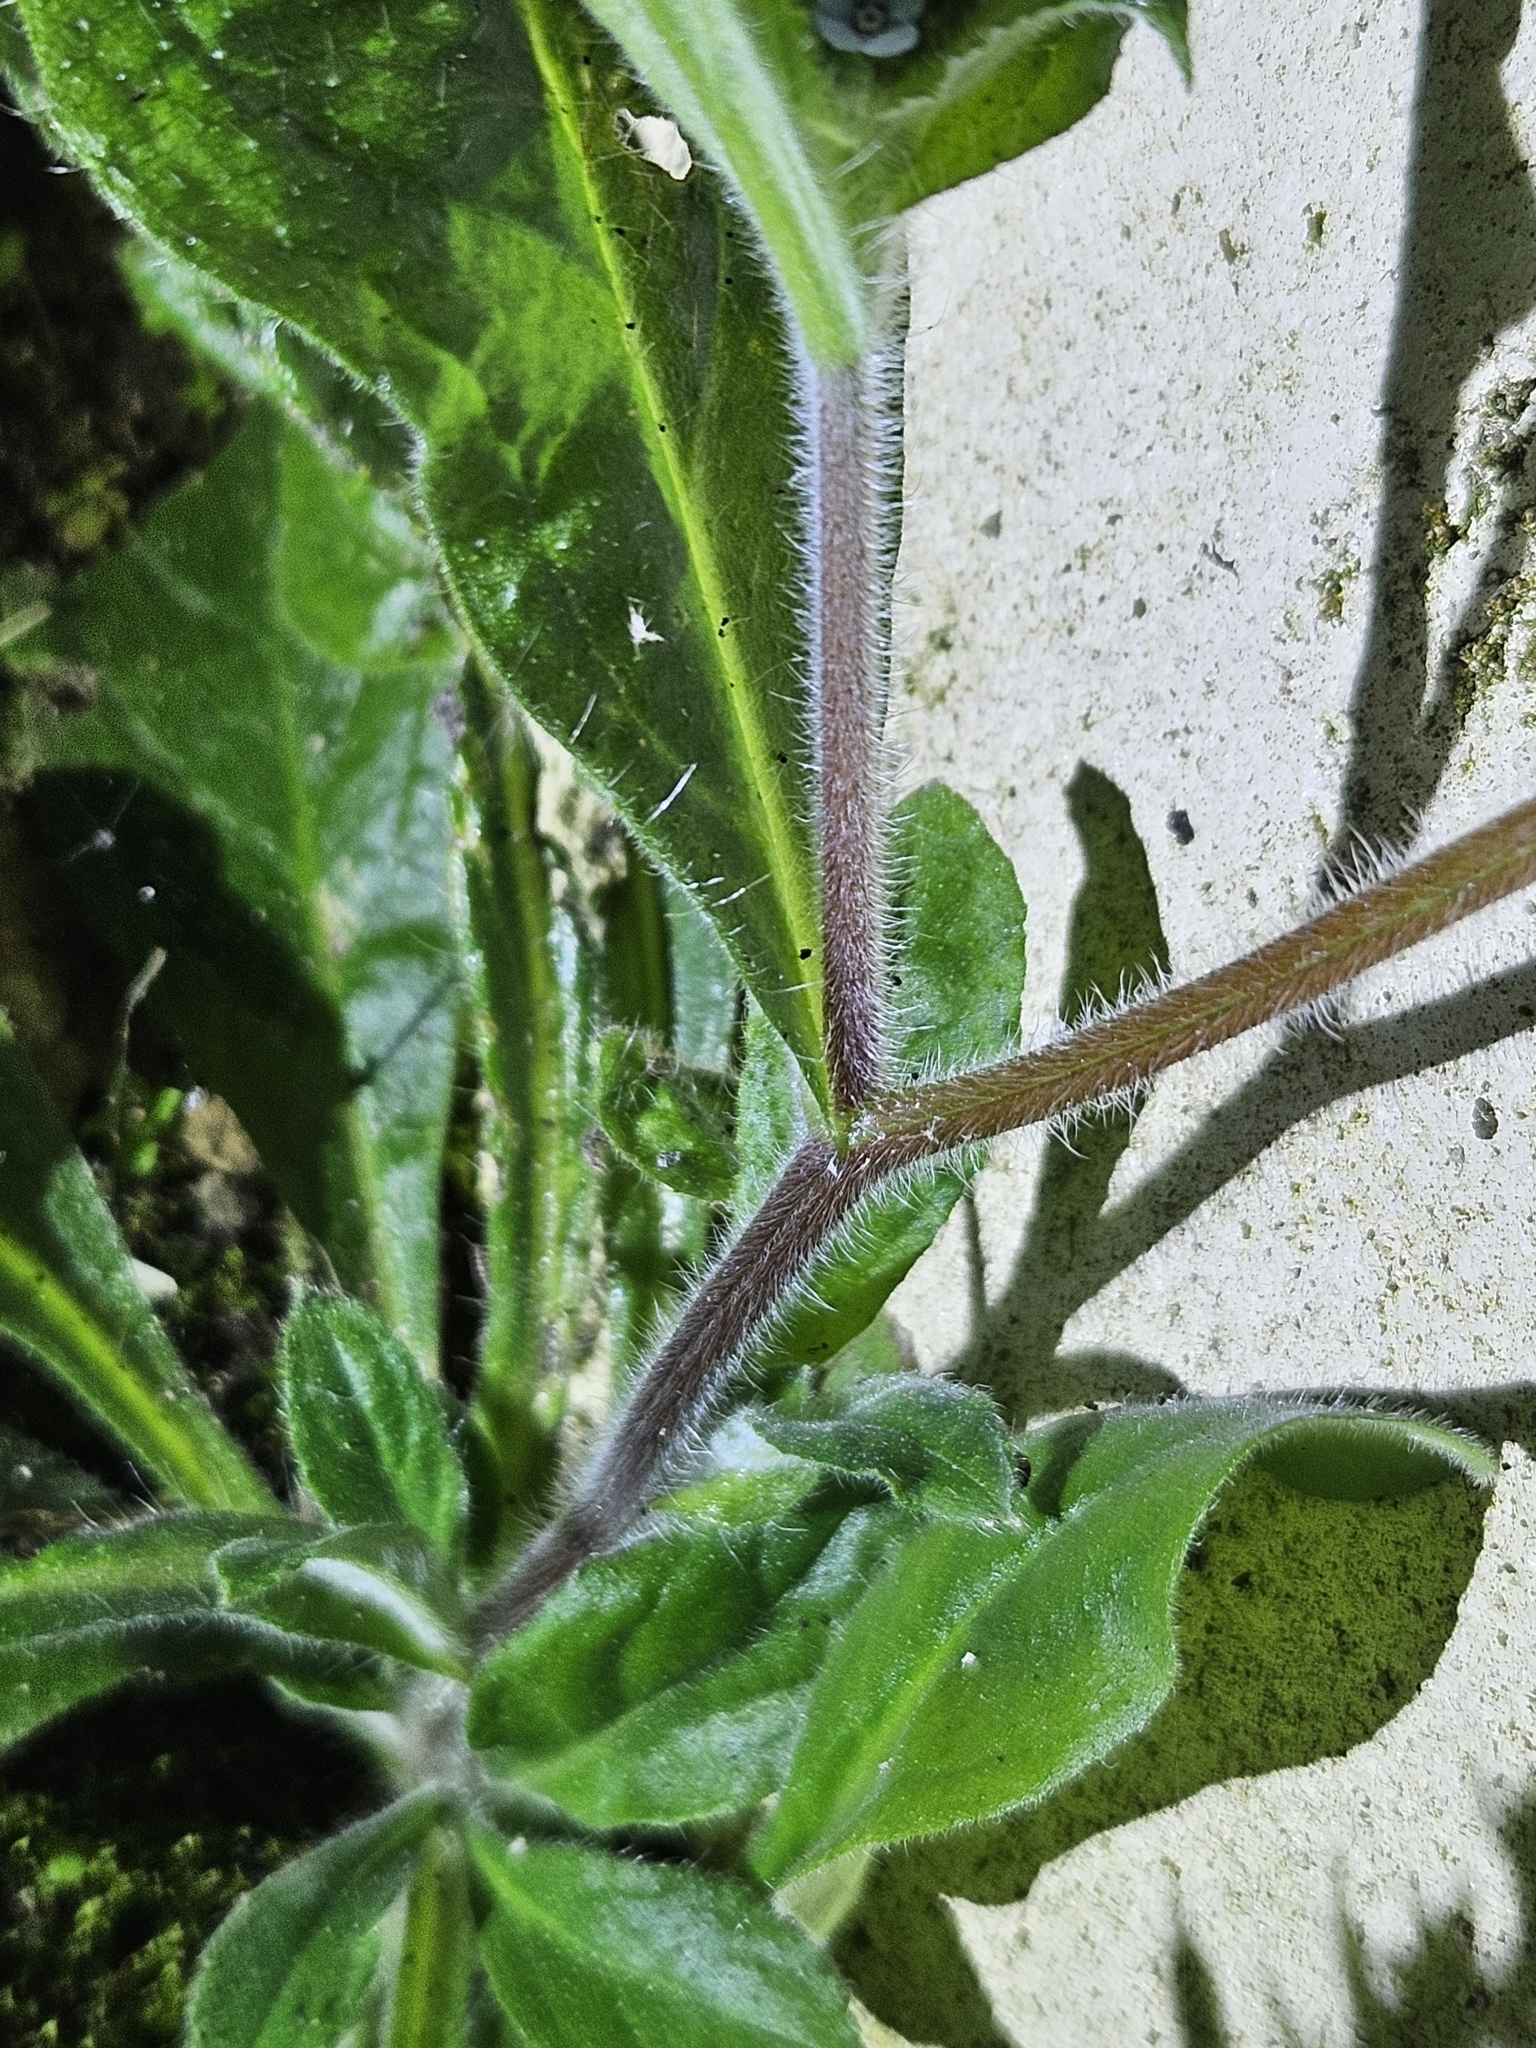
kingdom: Plantae
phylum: Tracheophyta
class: Magnoliopsida
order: Boraginales
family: Boraginaceae
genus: Thyrocarpus
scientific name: Thyrocarpus sampsonii
